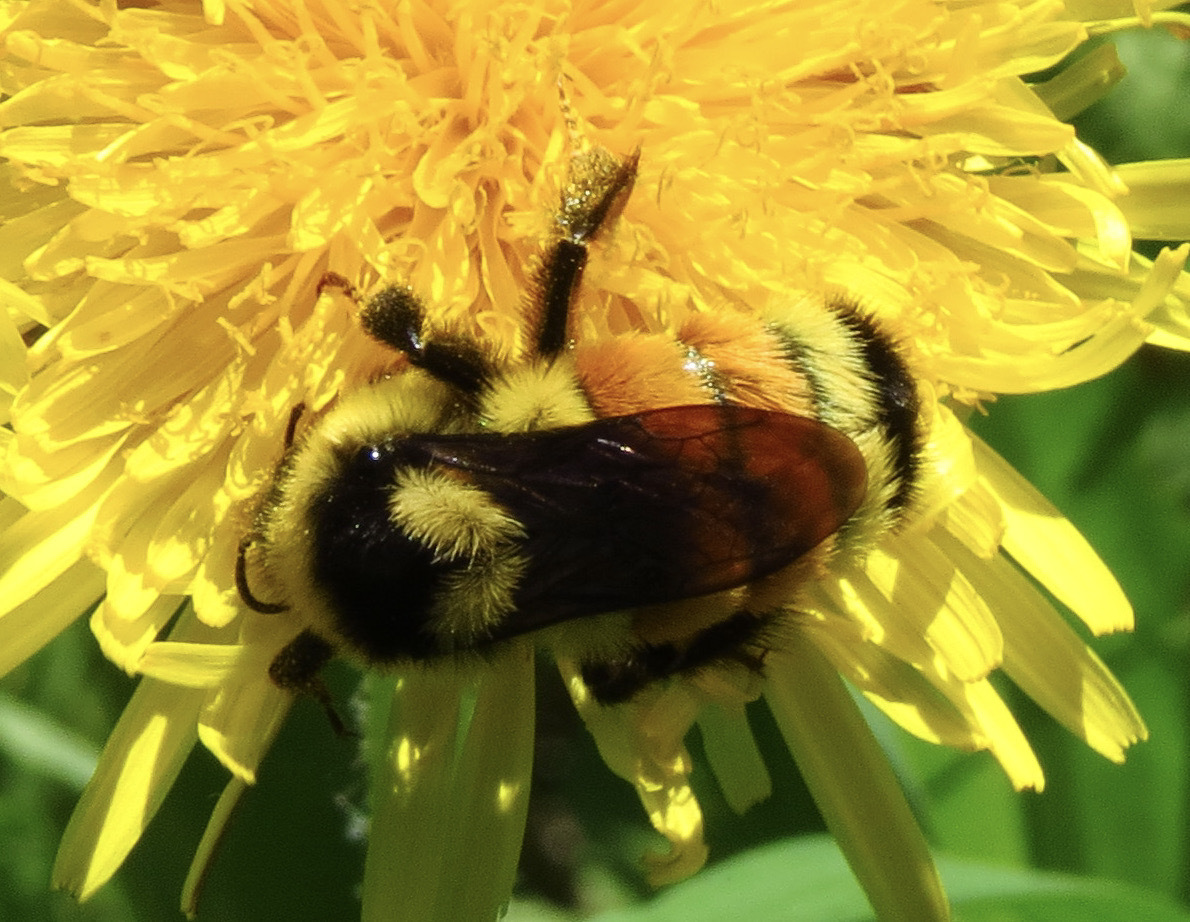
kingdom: Animalia
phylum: Arthropoda
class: Insecta
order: Hymenoptera
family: Apidae
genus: Bombus
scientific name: Bombus ternarius
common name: Tri-colored bumble bee
